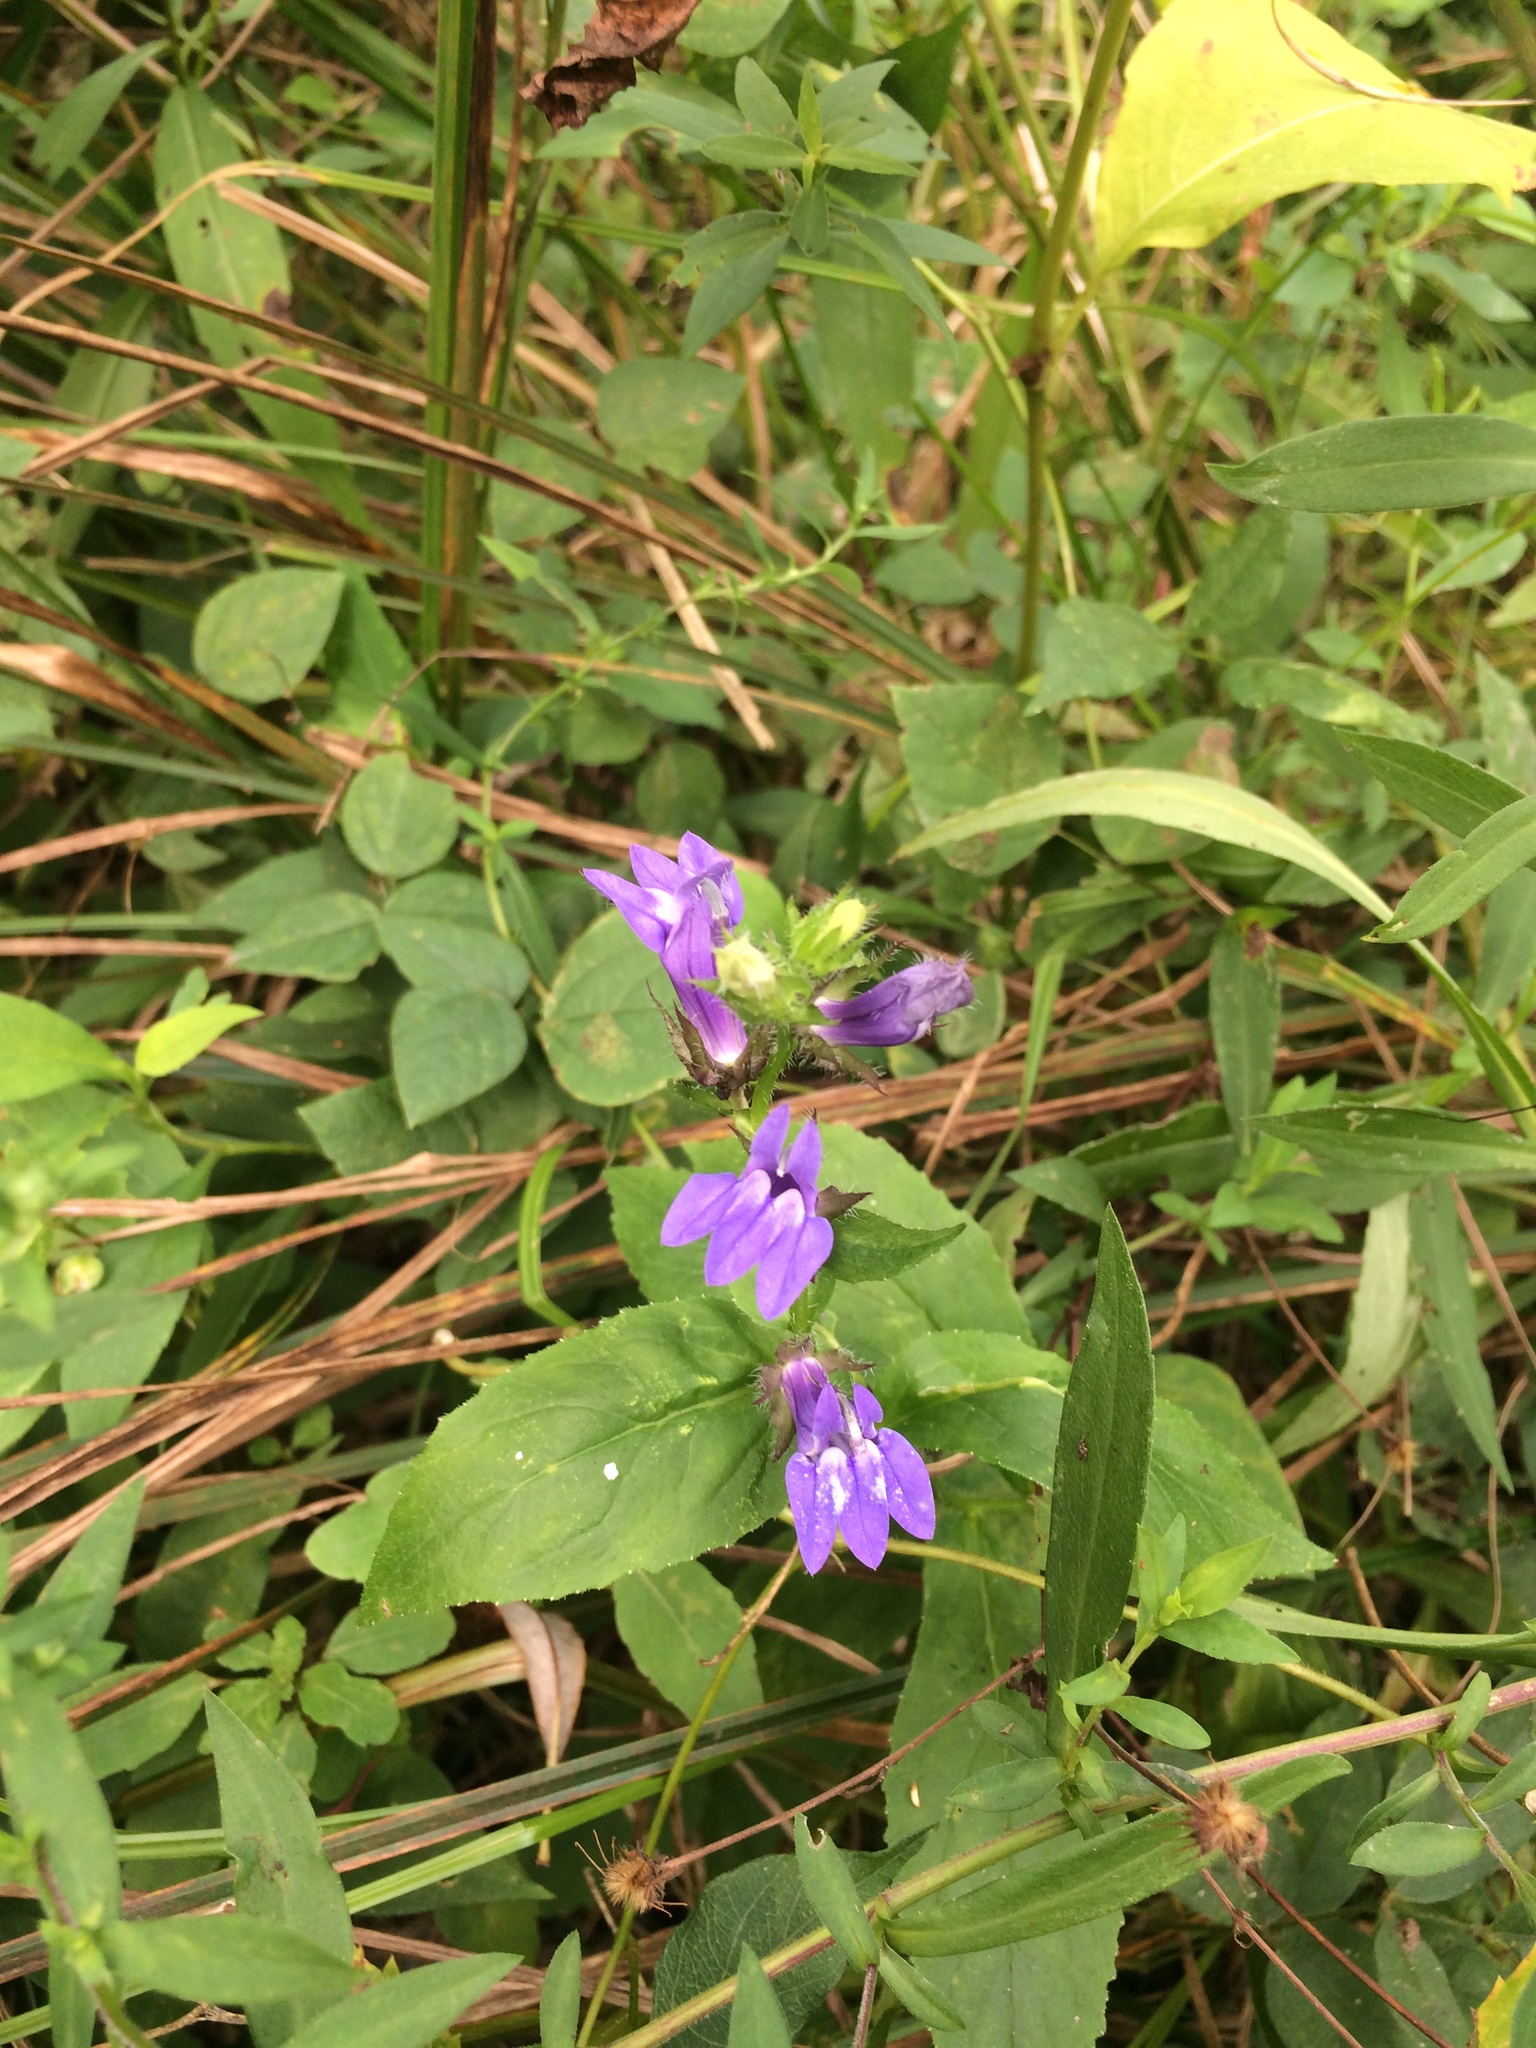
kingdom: Plantae
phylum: Tracheophyta
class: Magnoliopsida
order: Asterales
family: Campanulaceae
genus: Lobelia
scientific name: Lobelia siphilitica
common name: Great lobelia
